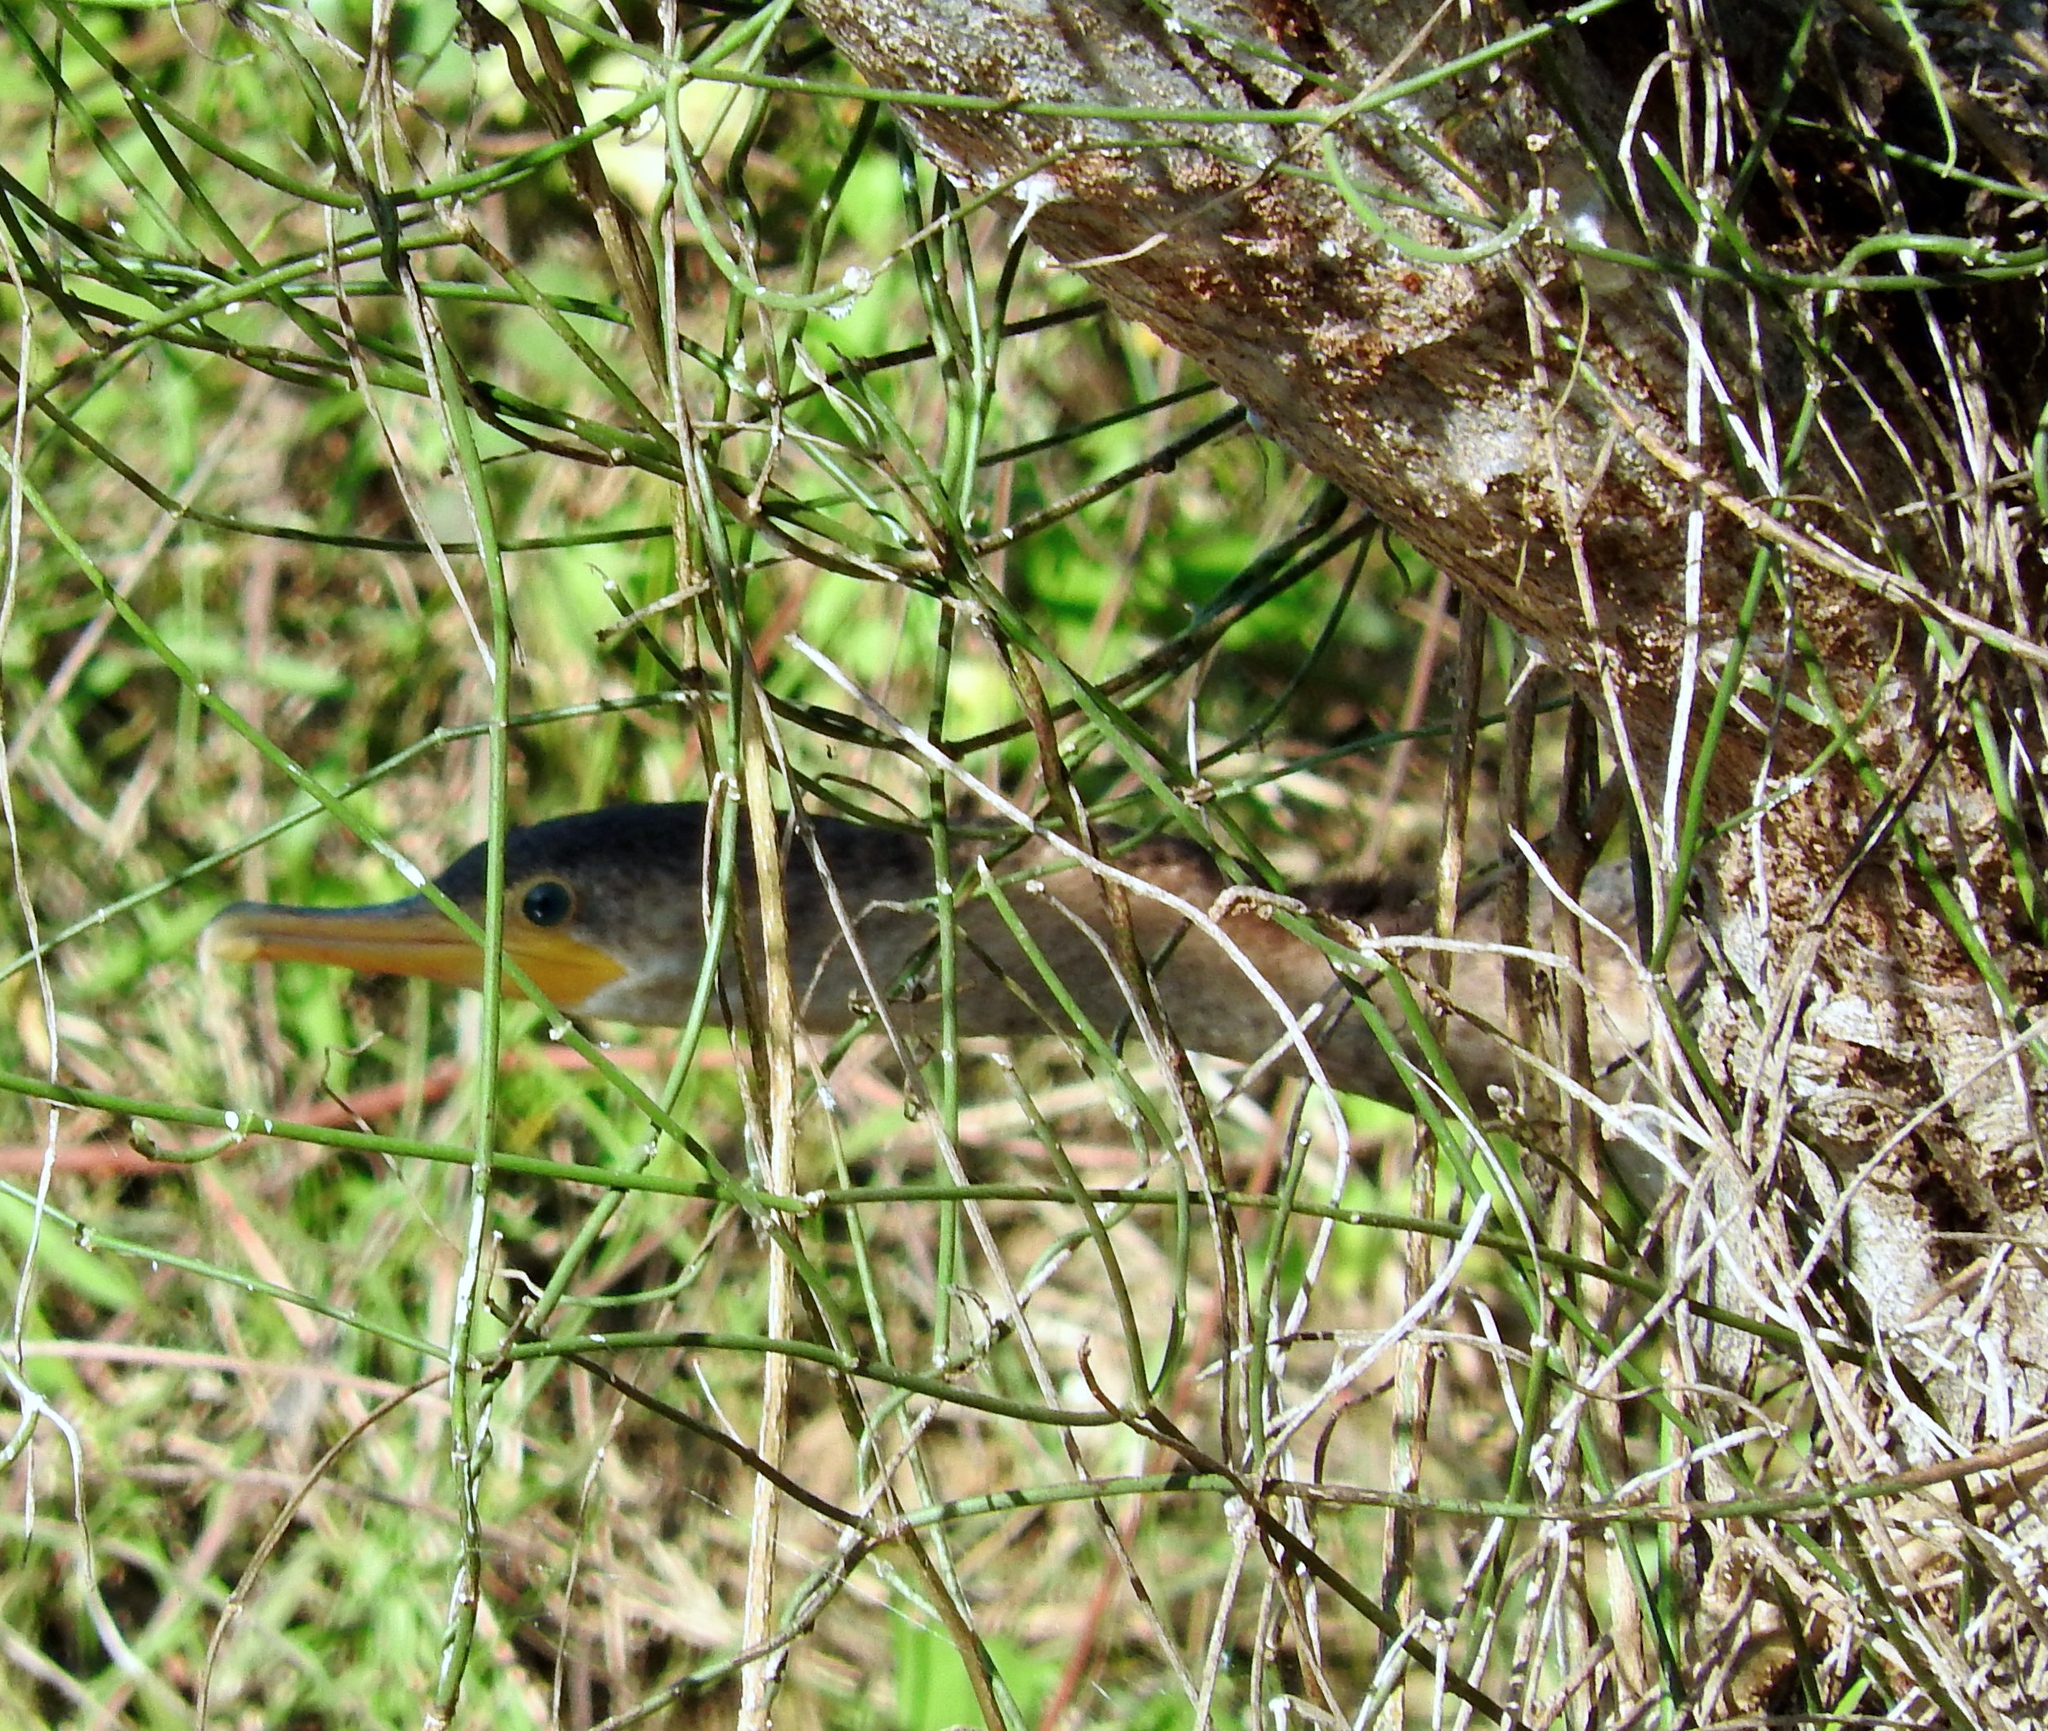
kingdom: Animalia
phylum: Chordata
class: Aves
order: Suliformes
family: Phalacrocoracidae
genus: Phalacrocorax
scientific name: Phalacrocorax brasilianus
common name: Neotropic cormorant
